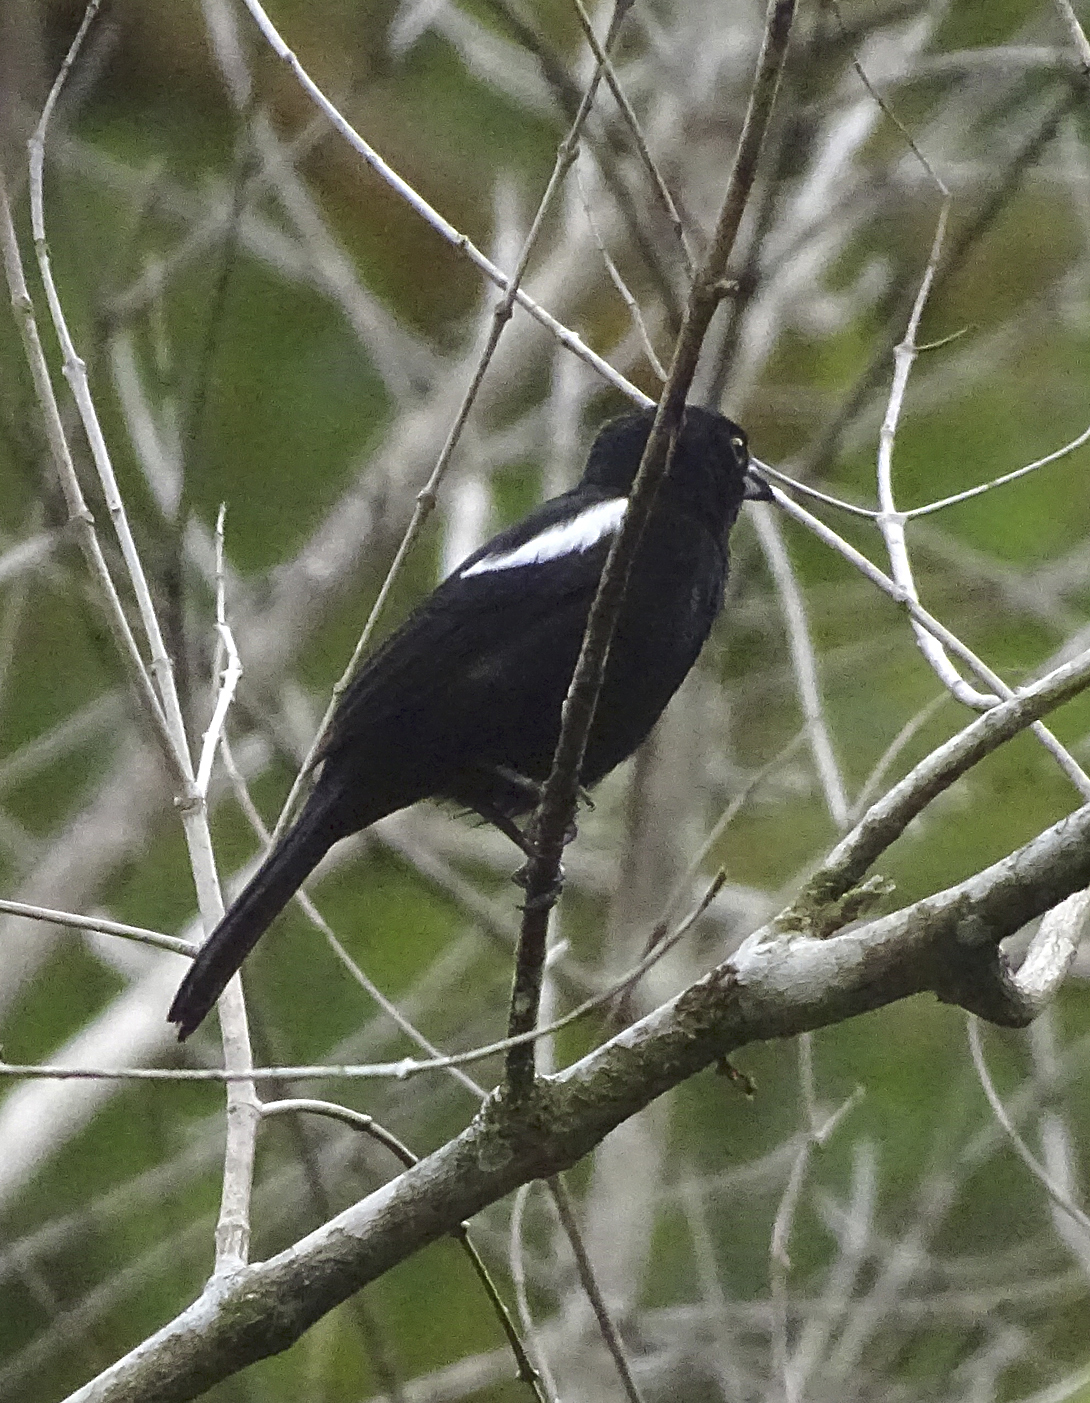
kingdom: Animalia
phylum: Chordata
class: Aves
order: Passeriformes
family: Thraupidae
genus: Loriotus
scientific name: Loriotus luctuosus
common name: White-shouldered tanager
